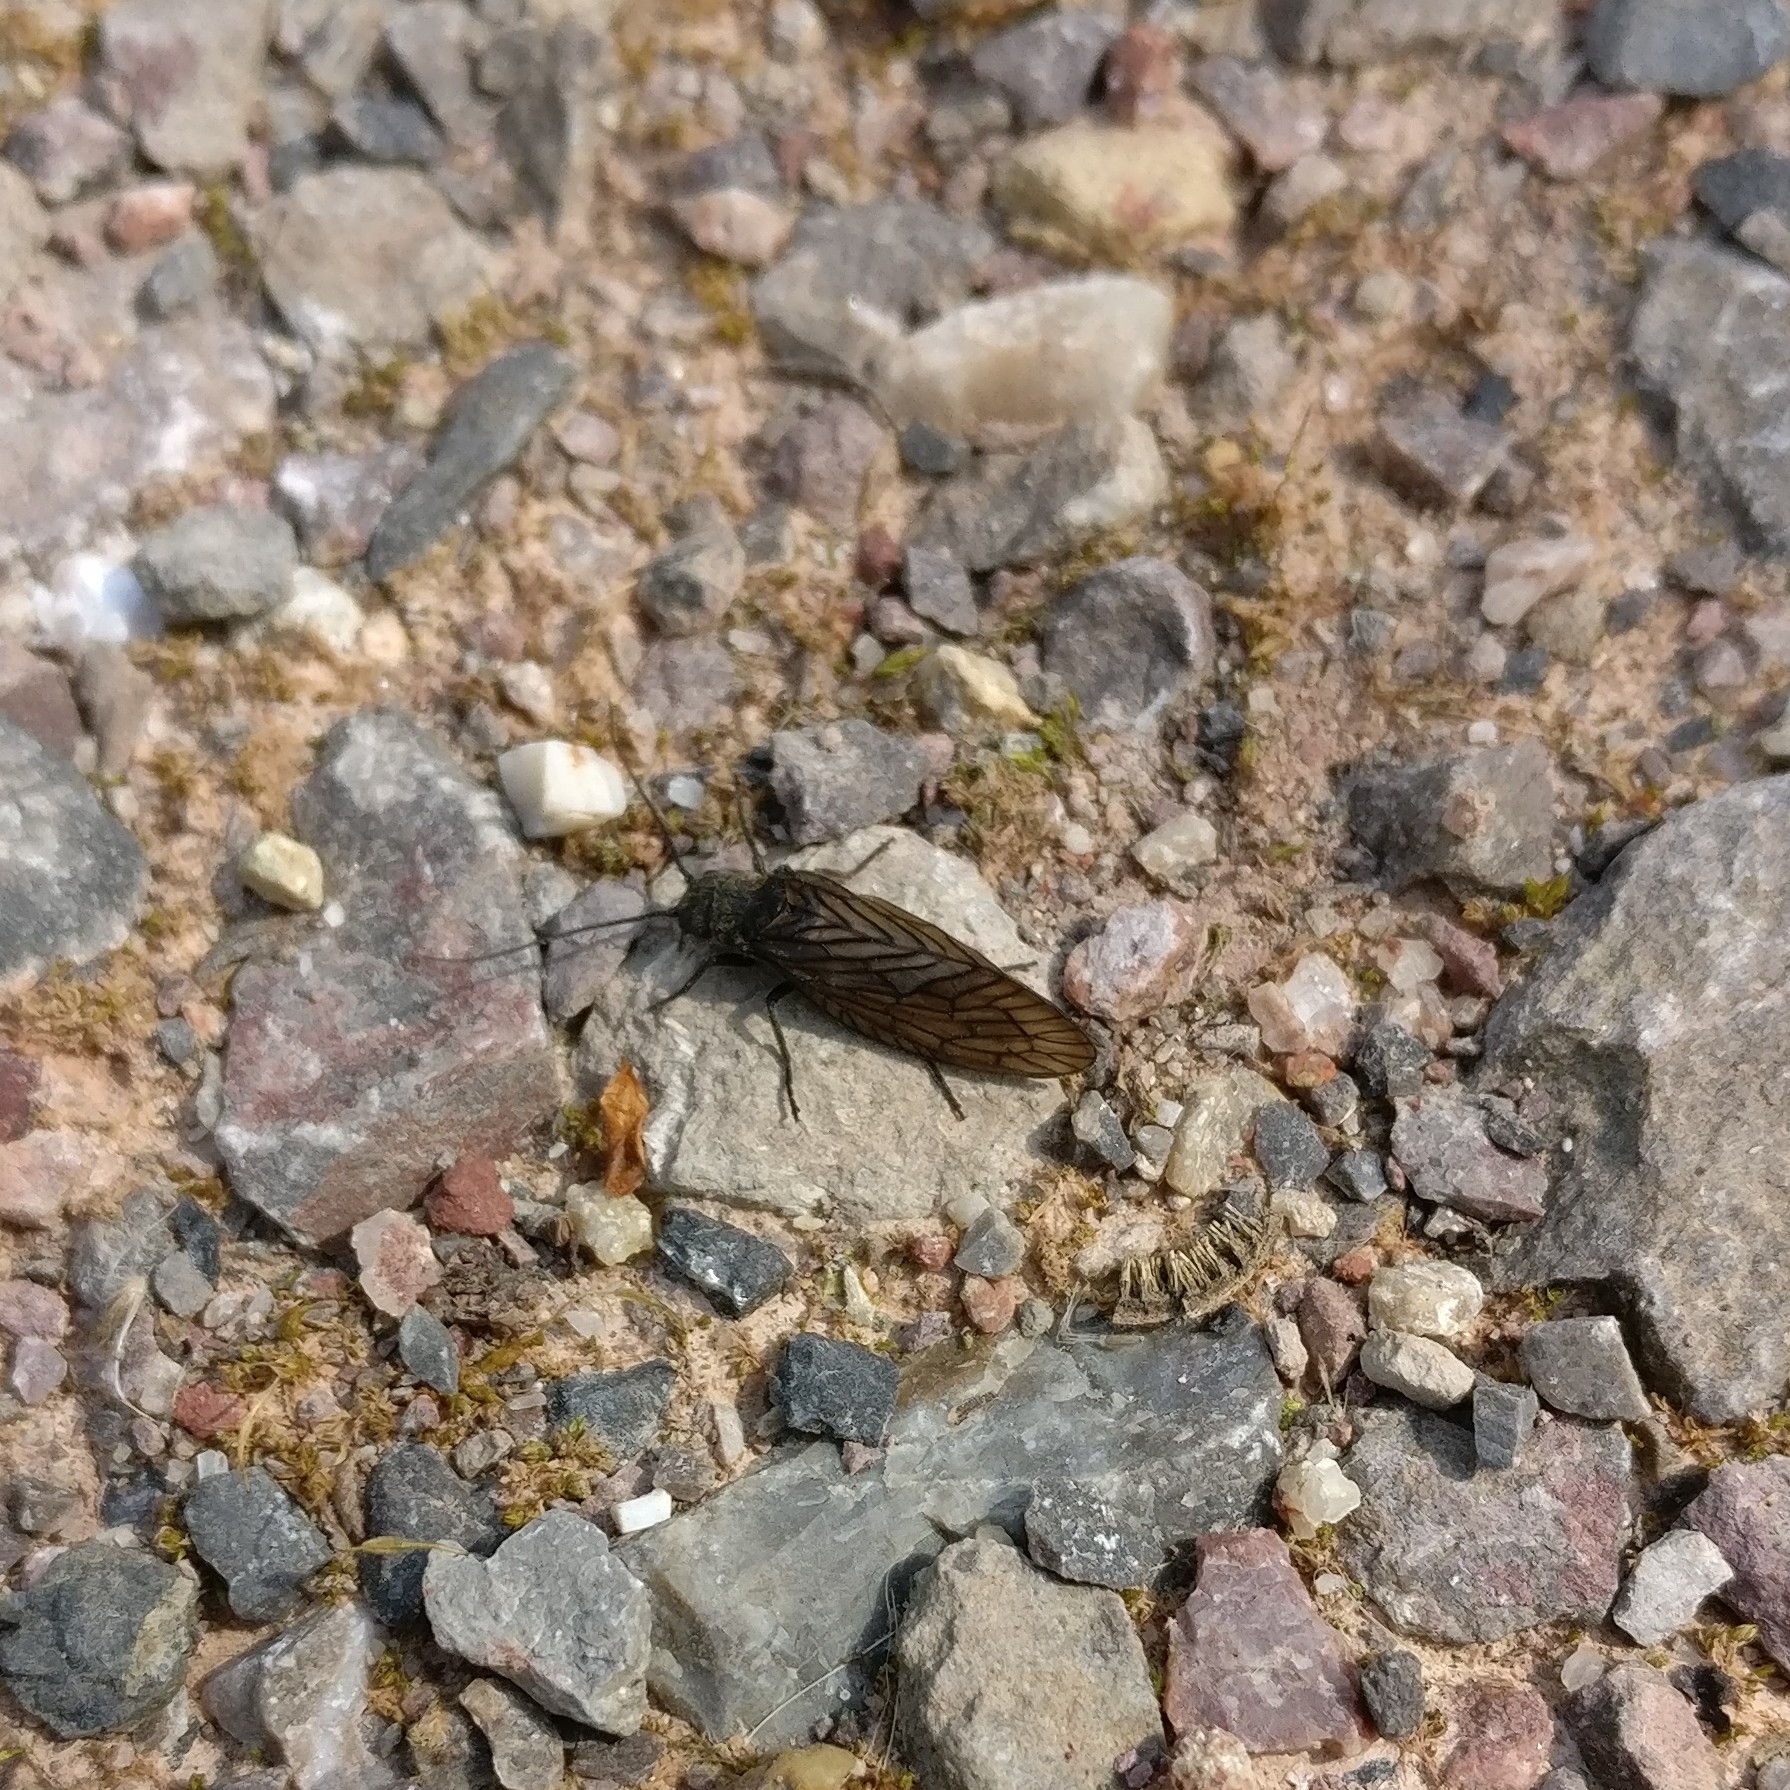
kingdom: Animalia
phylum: Arthropoda
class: Insecta
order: Megaloptera
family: Sialidae
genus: Sialis
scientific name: Sialis
